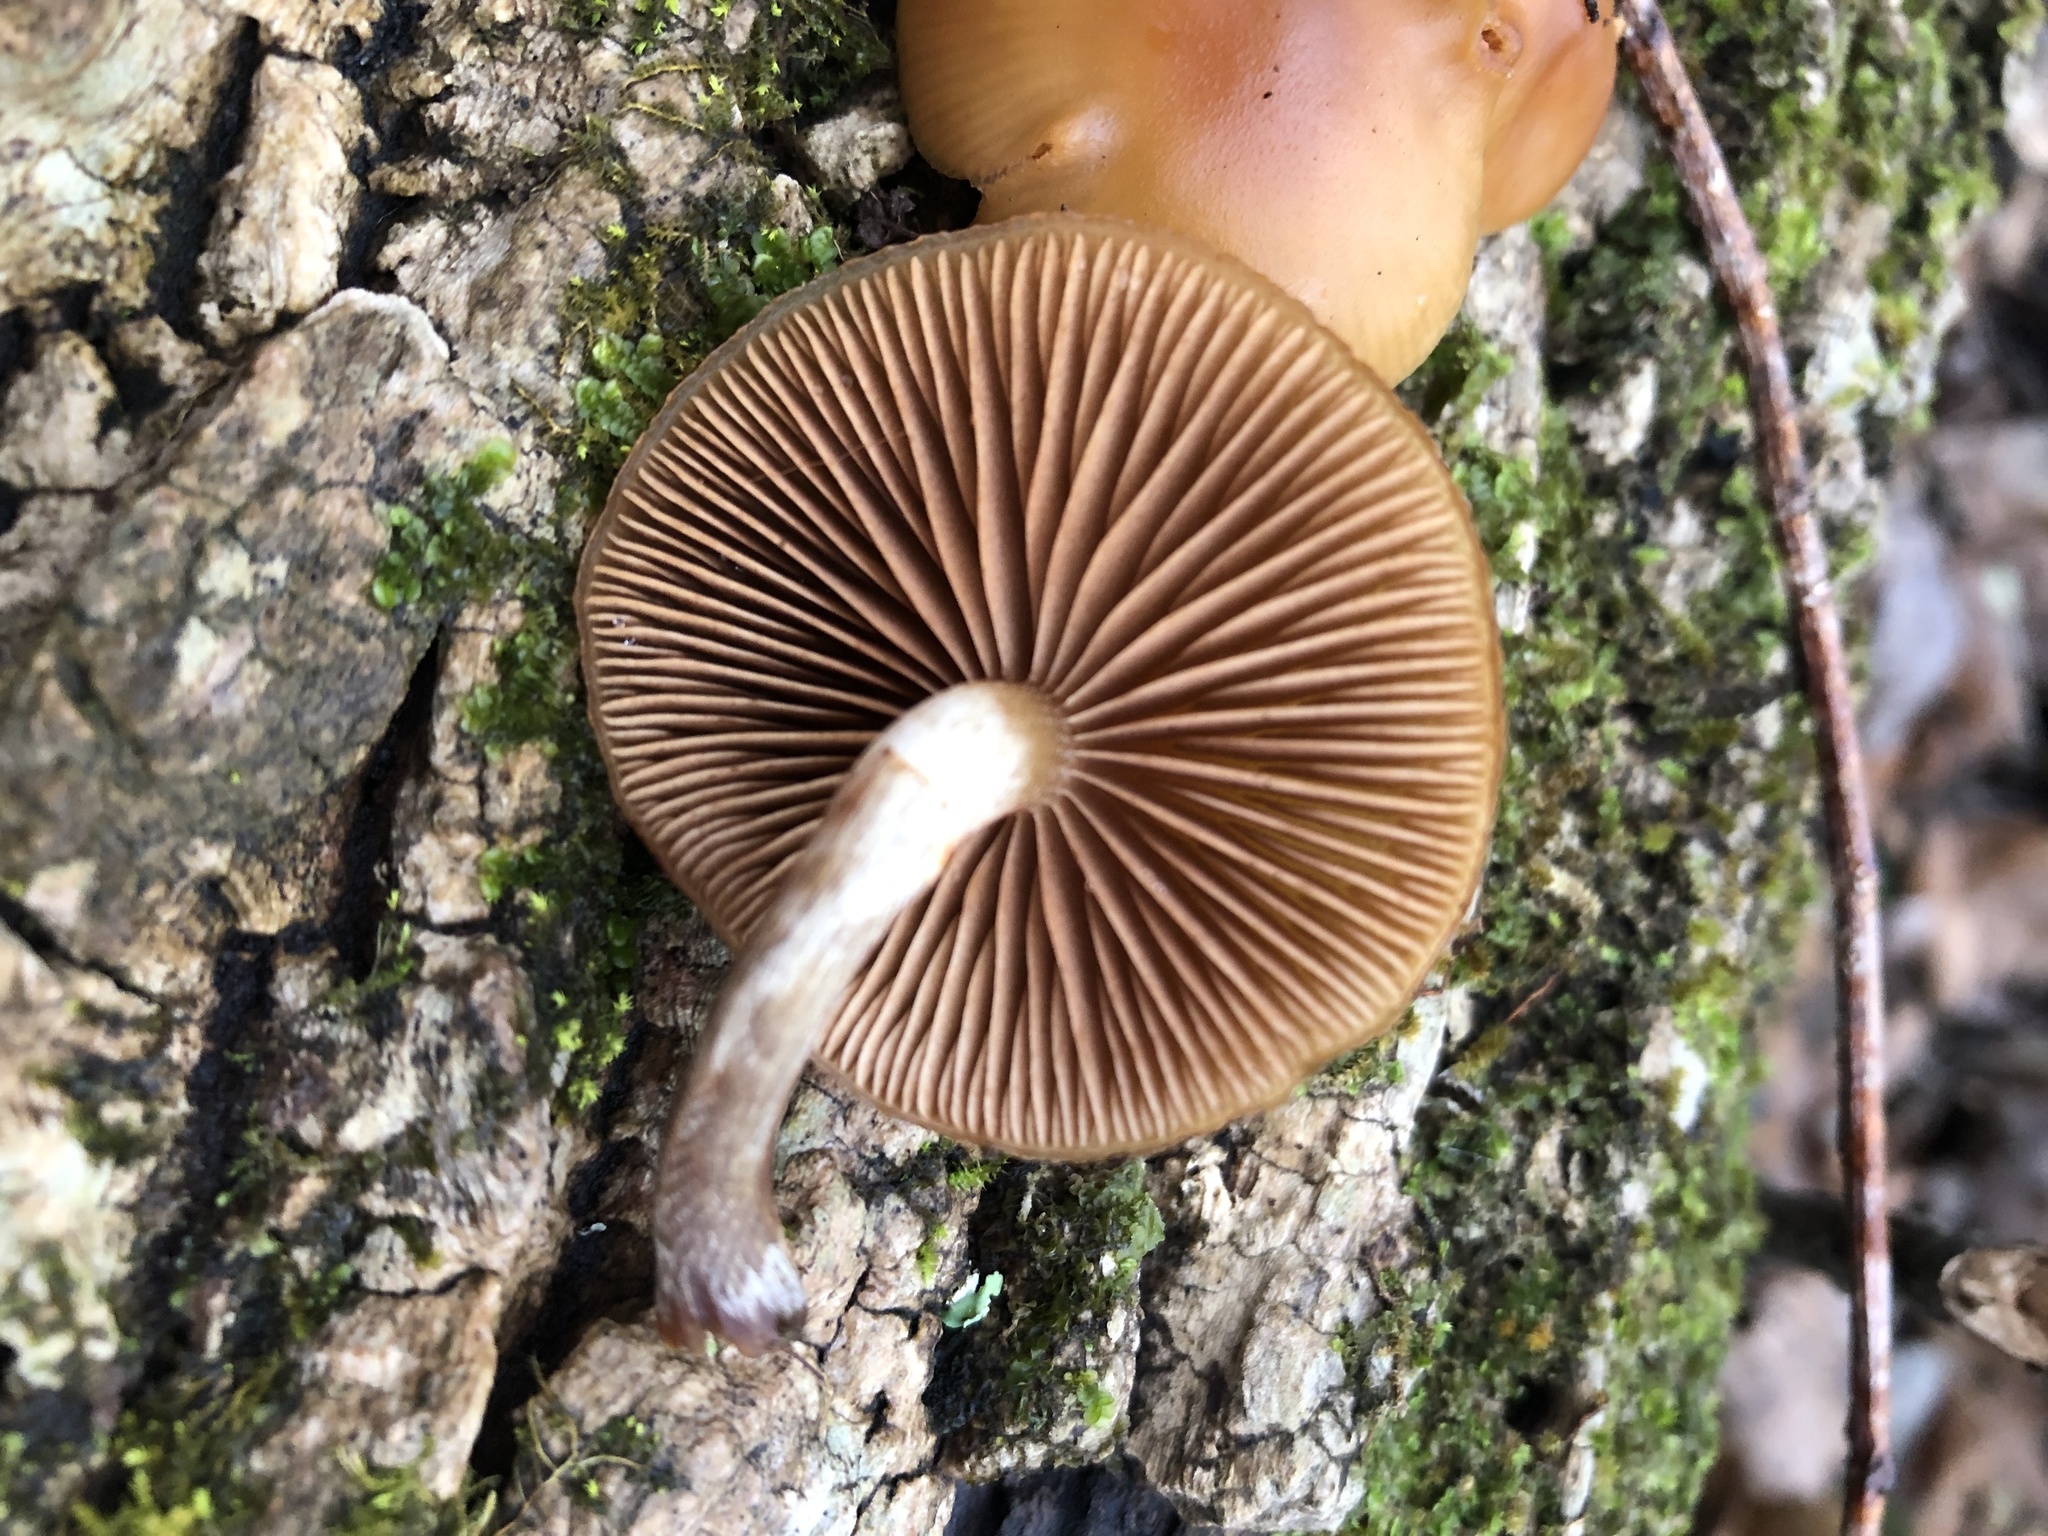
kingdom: Fungi
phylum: Basidiomycota
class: Agaricomycetes
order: Agaricales
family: Hymenogastraceae
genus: Galerina
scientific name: Galerina marginata
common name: Funeral bell
